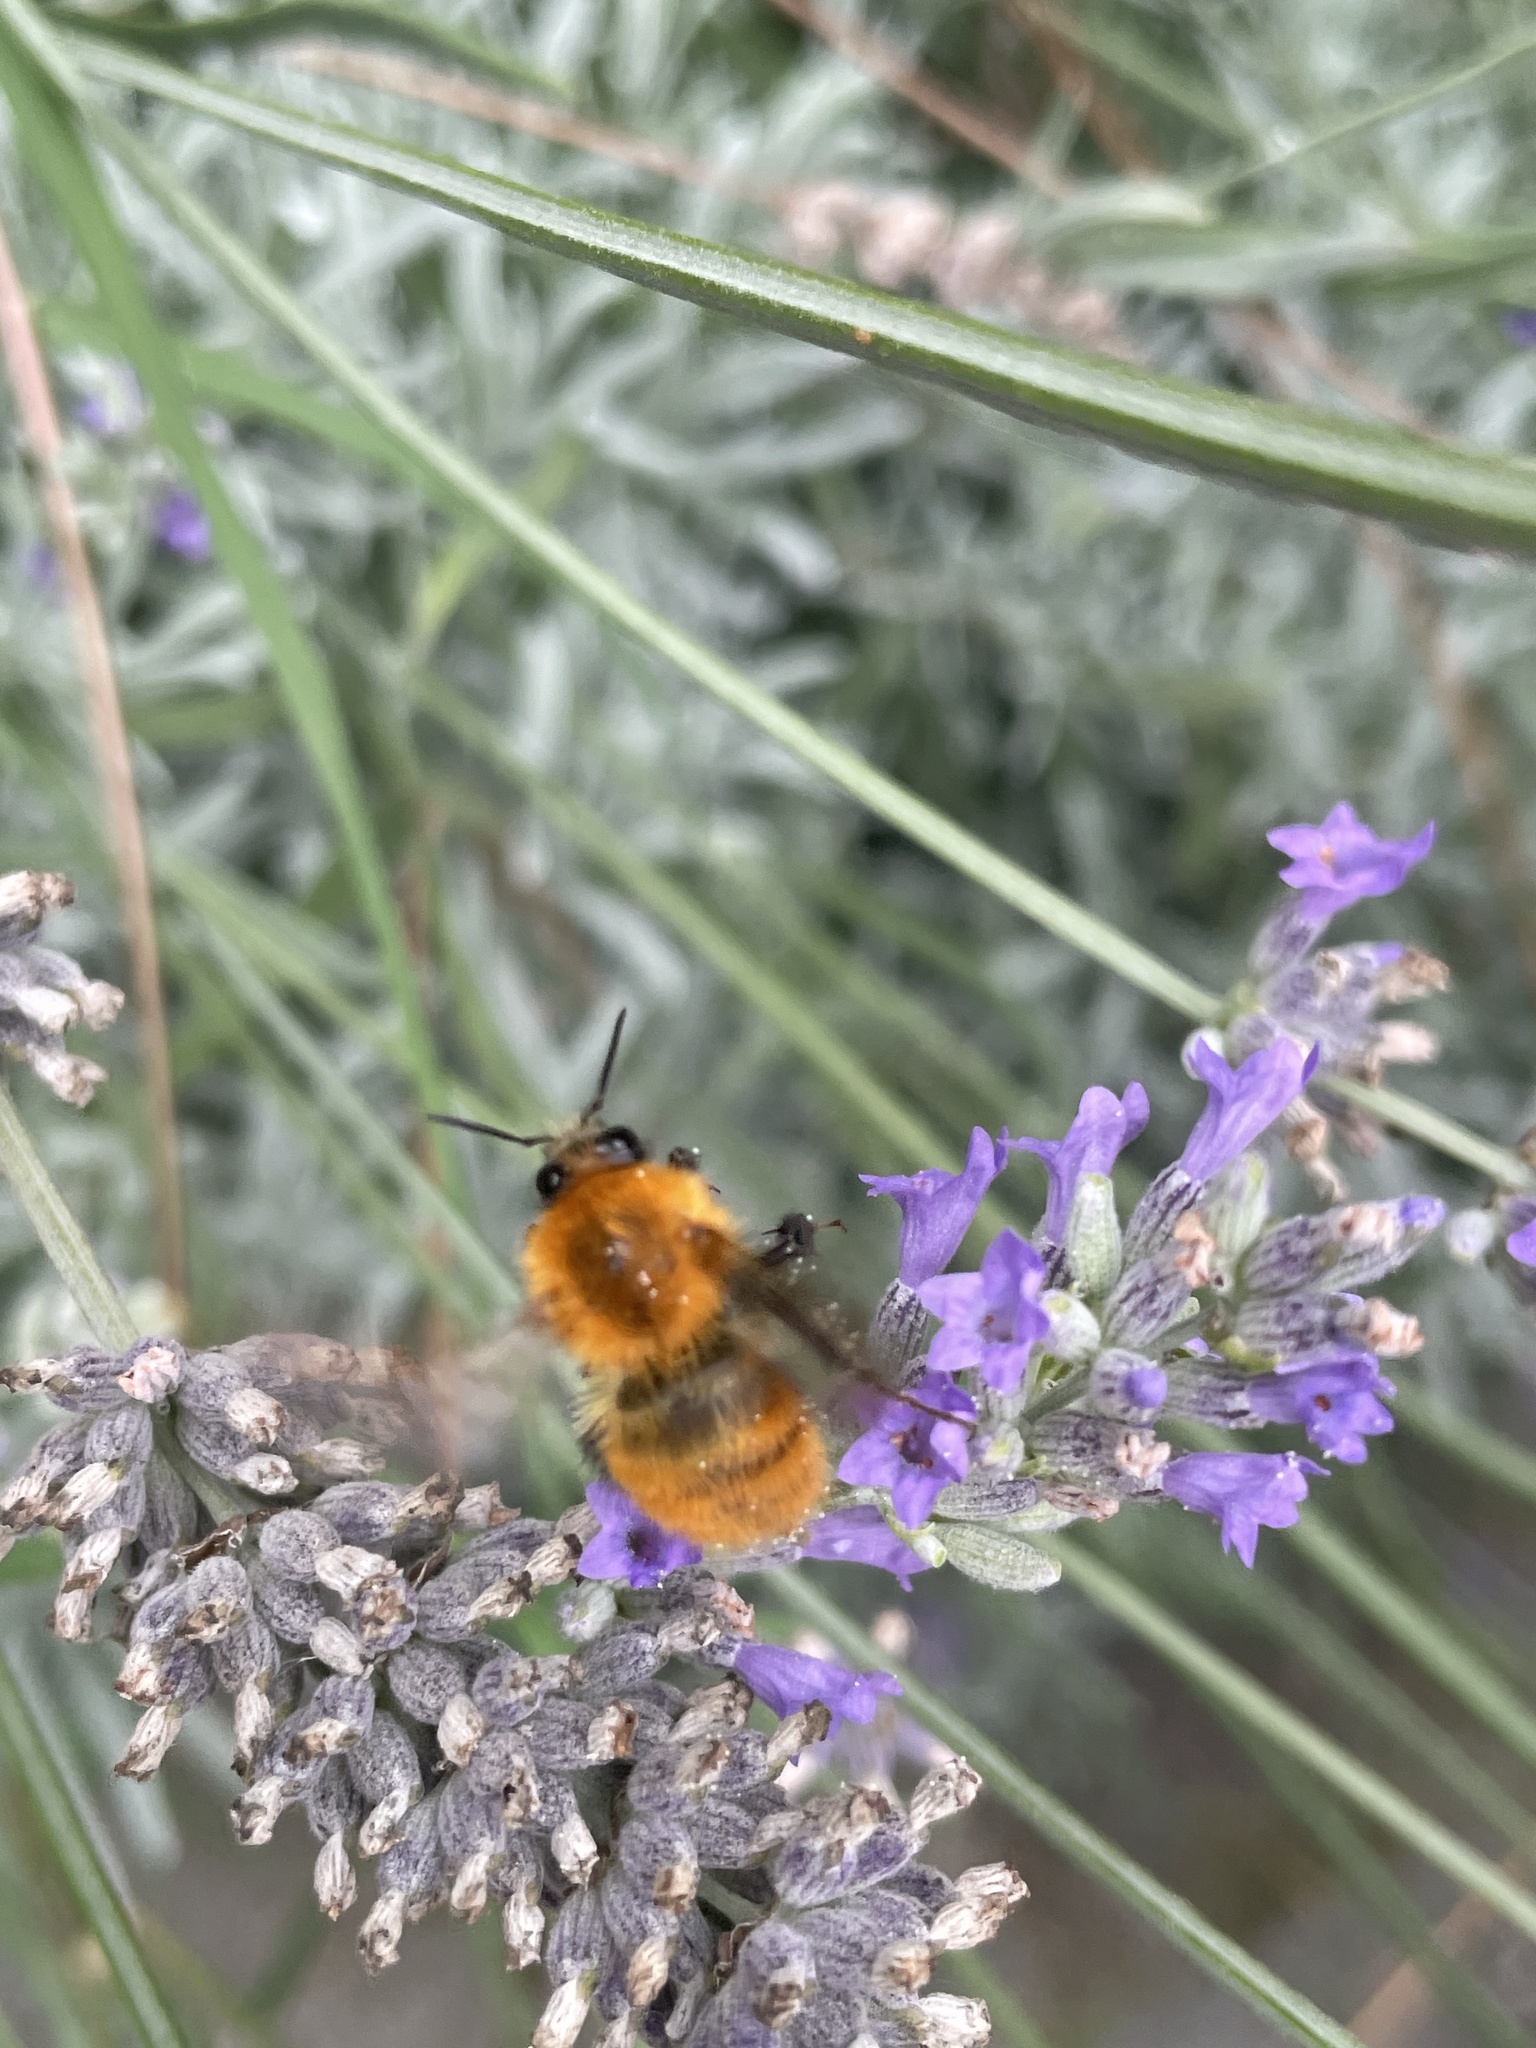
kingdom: Animalia
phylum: Arthropoda
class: Insecta
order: Hymenoptera
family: Apidae
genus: Bombus
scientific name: Bombus pascuorum
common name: Common carder bee
